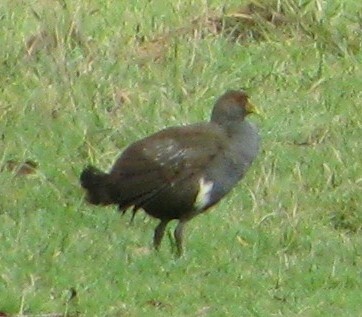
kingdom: Animalia
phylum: Chordata
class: Aves
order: Gruiformes
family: Rallidae
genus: Gallinula
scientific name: Gallinula mortierii
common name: Tasmanian nativehen
